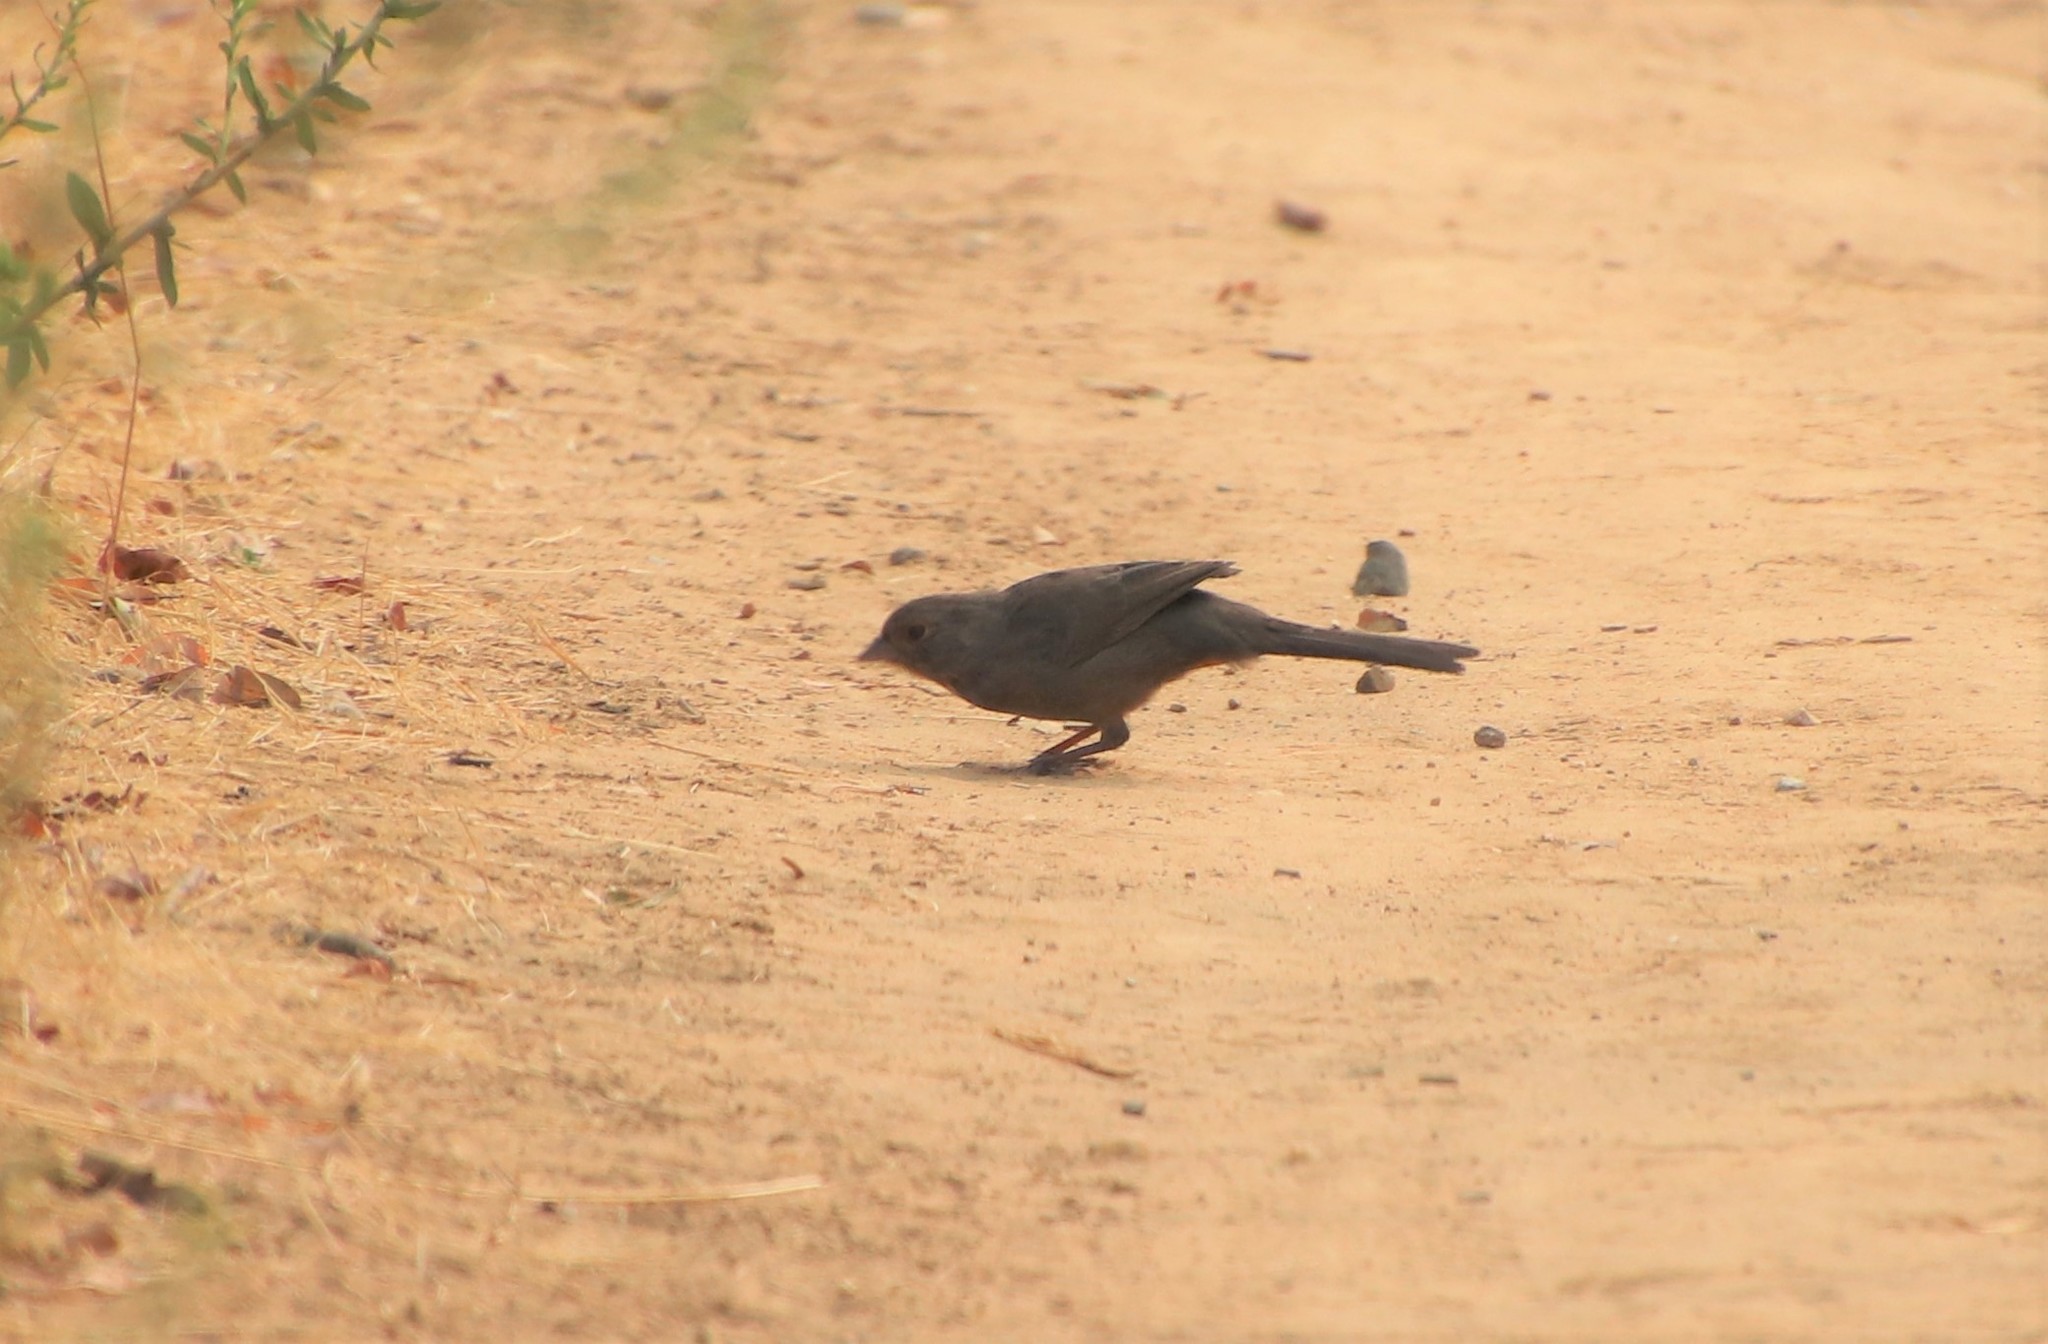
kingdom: Animalia
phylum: Chordata
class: Aves
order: Passeriformes
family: Passerellidae
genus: Melozone
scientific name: Melozone crissalis
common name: California towhee
